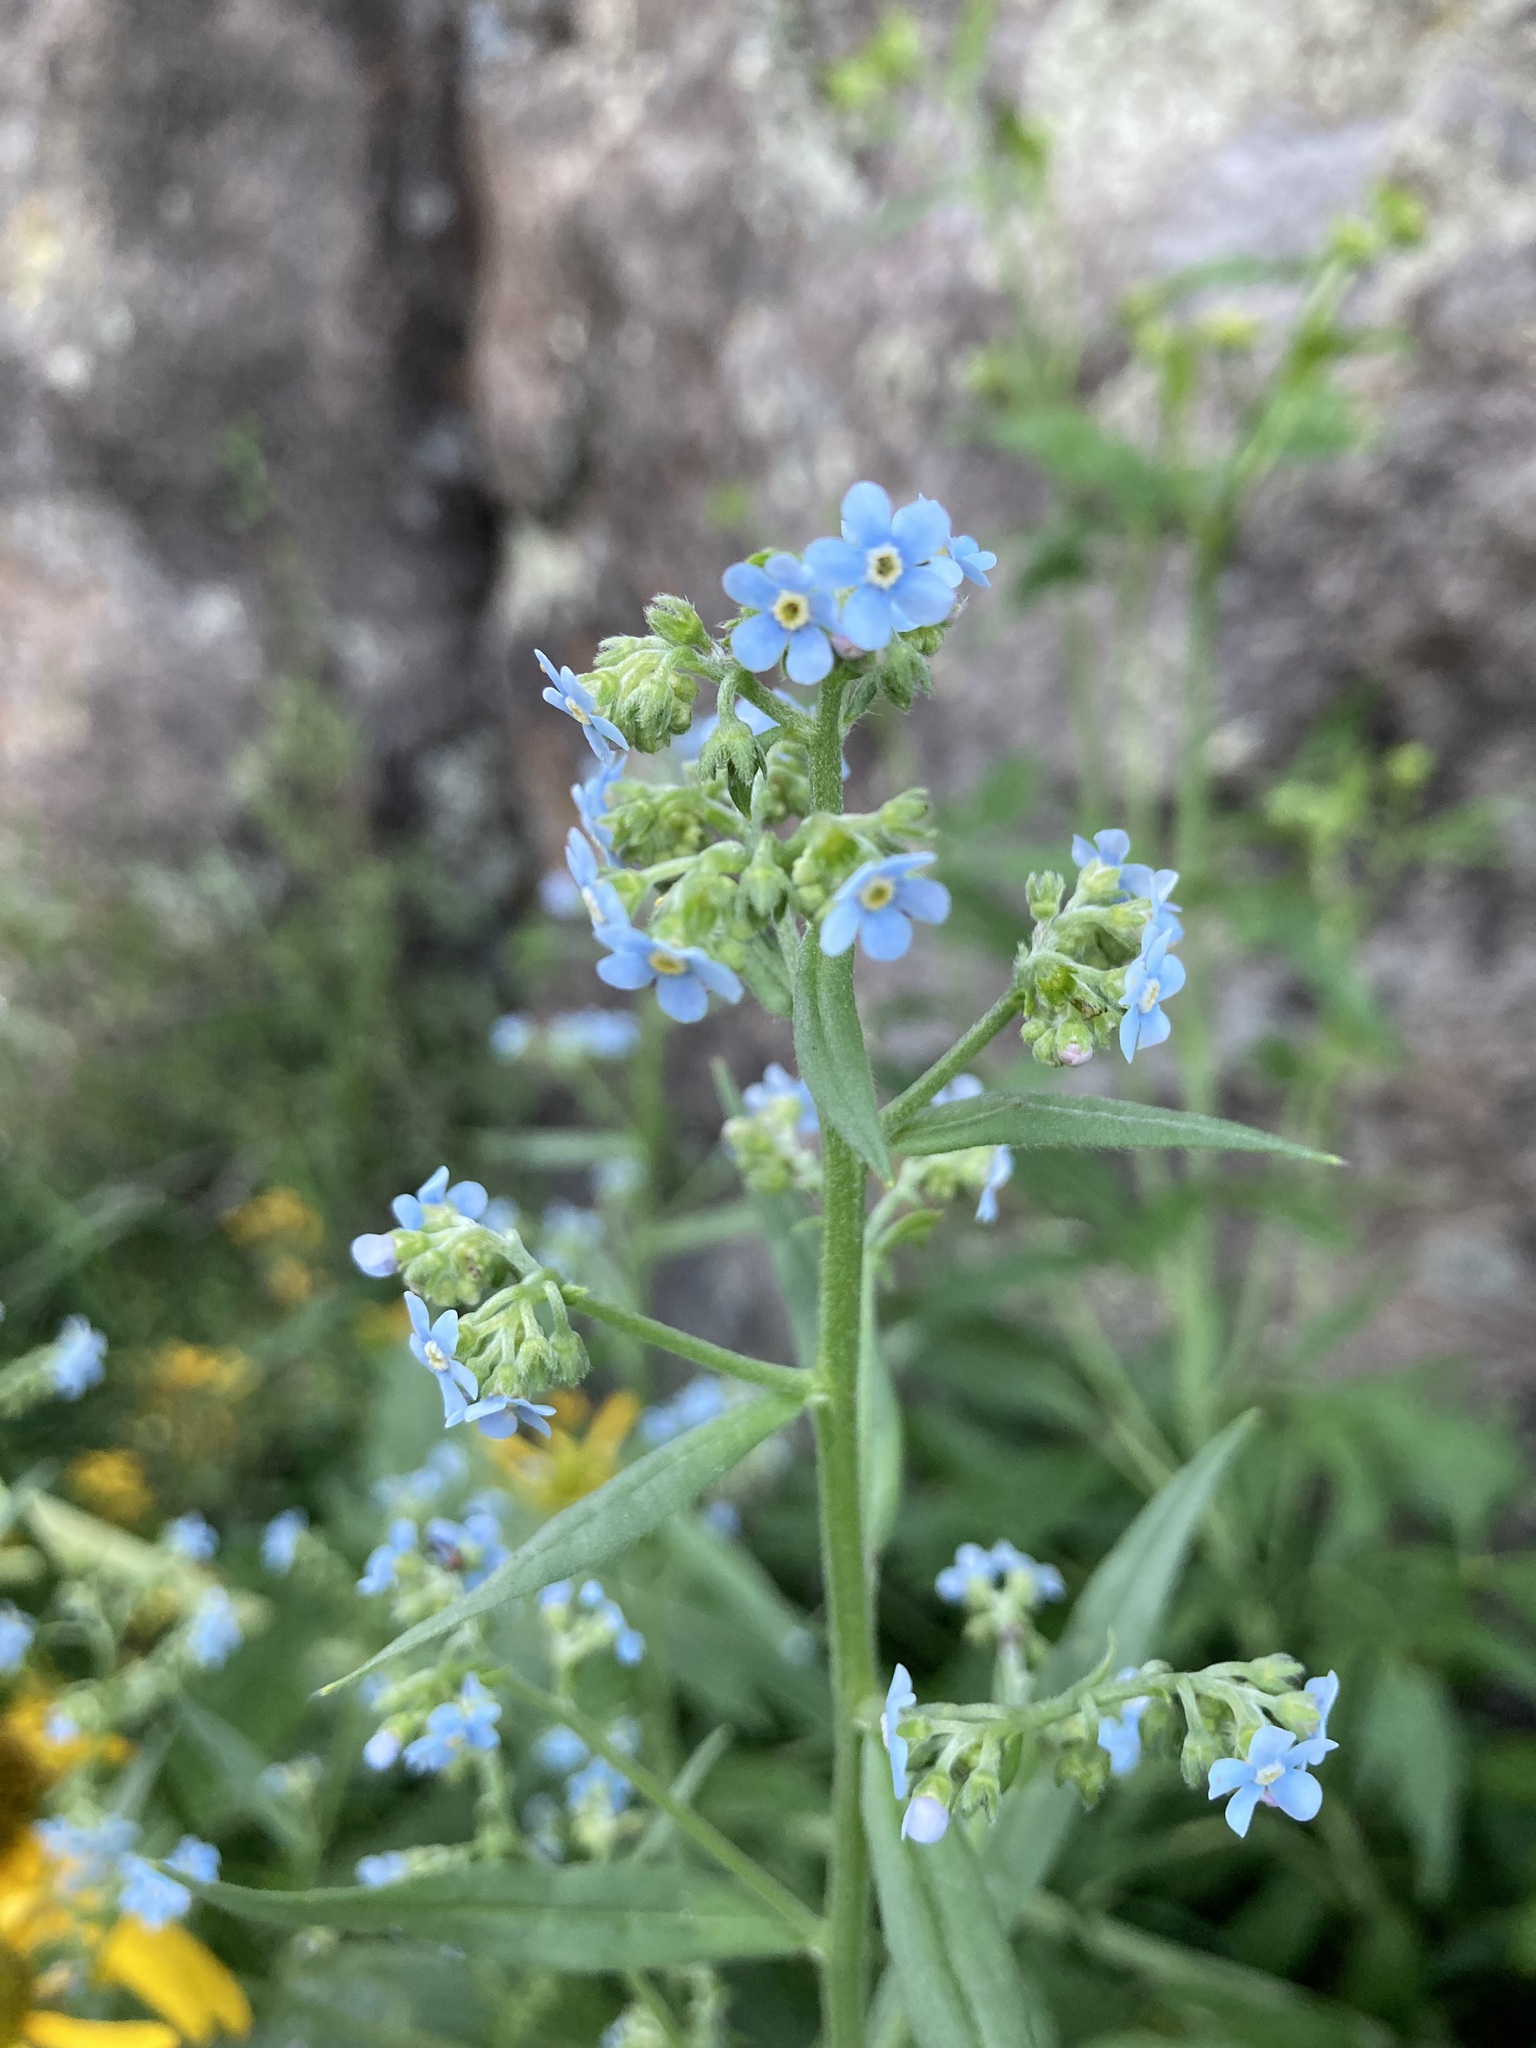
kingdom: Plantae
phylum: Tracheophyta
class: Magnoliopsida
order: Boraginales
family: Boraginaceae
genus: Hackelia
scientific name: Hackelia floribunda
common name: Large-flowered stickseed
